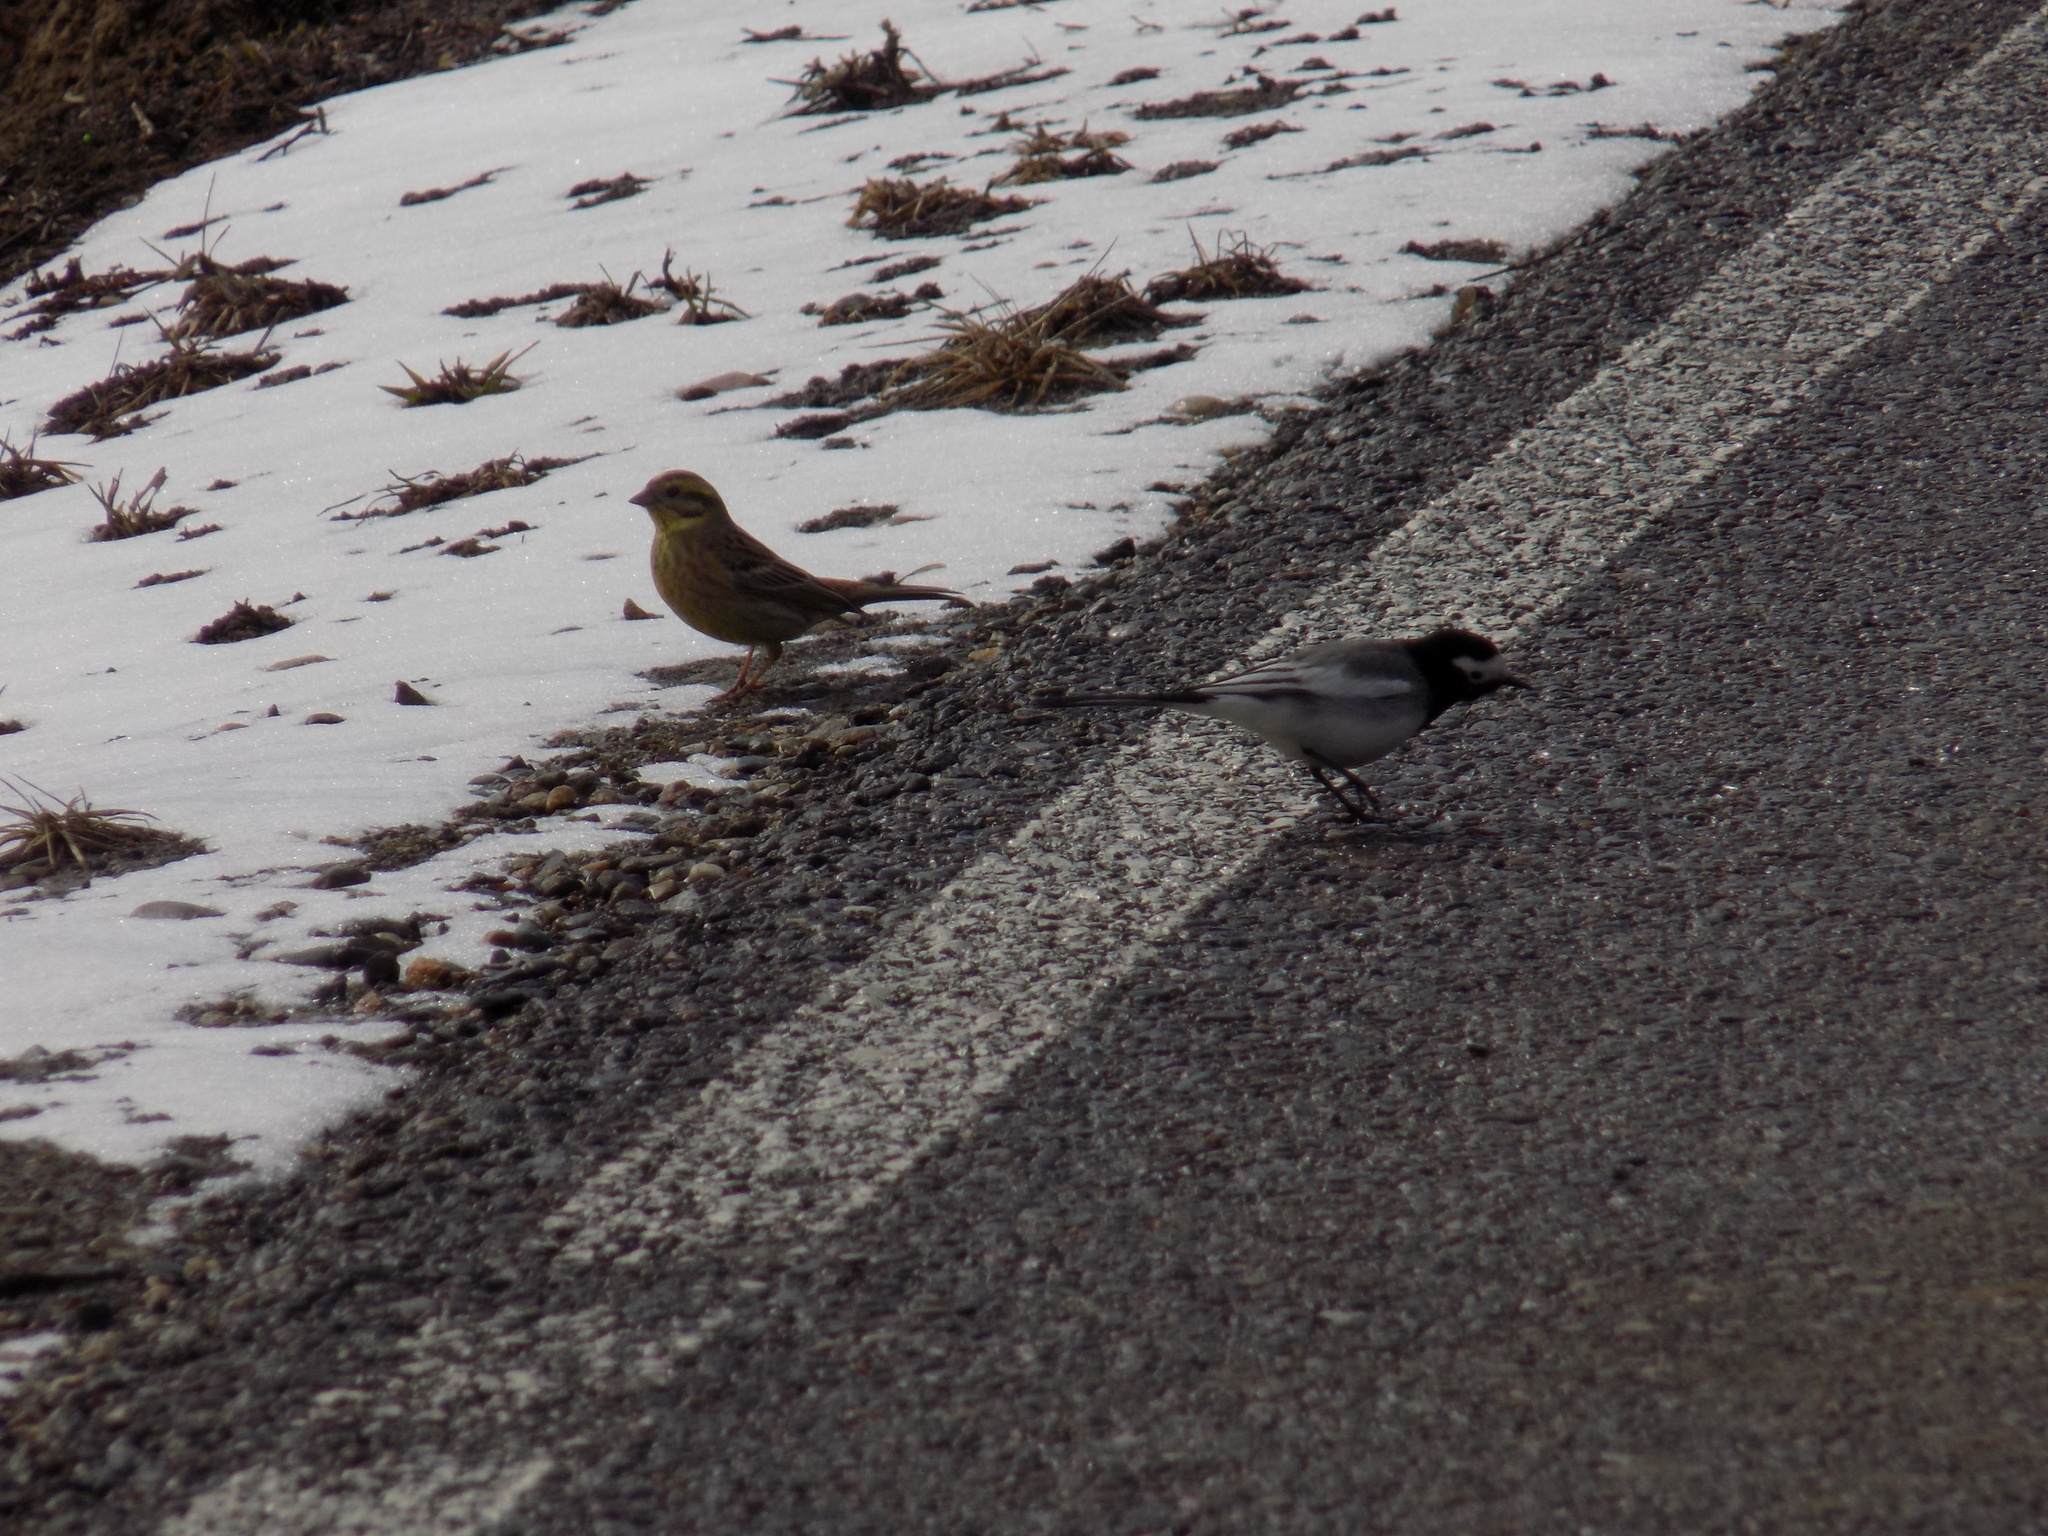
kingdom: Animalia
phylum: Chordata
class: Aves
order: Passeriformes
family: Emberizidae
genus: Emberiza
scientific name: Emberiza citrinella
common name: Yellowhammer
